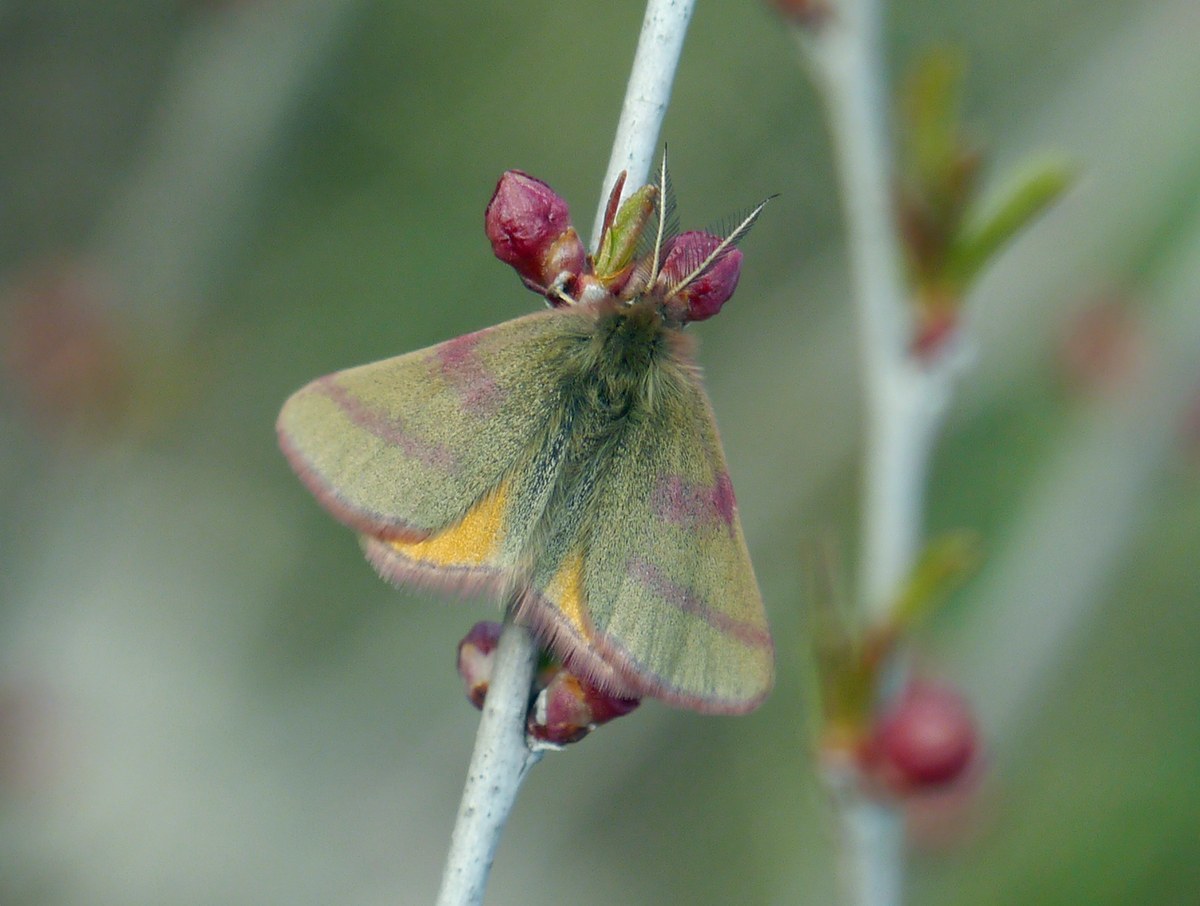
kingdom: Animalia
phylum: Arthropoda
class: Insecta
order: Lepidoptera
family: Geometridae
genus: Lythria
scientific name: Lythria purpuraria
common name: Purple-barred yellow
